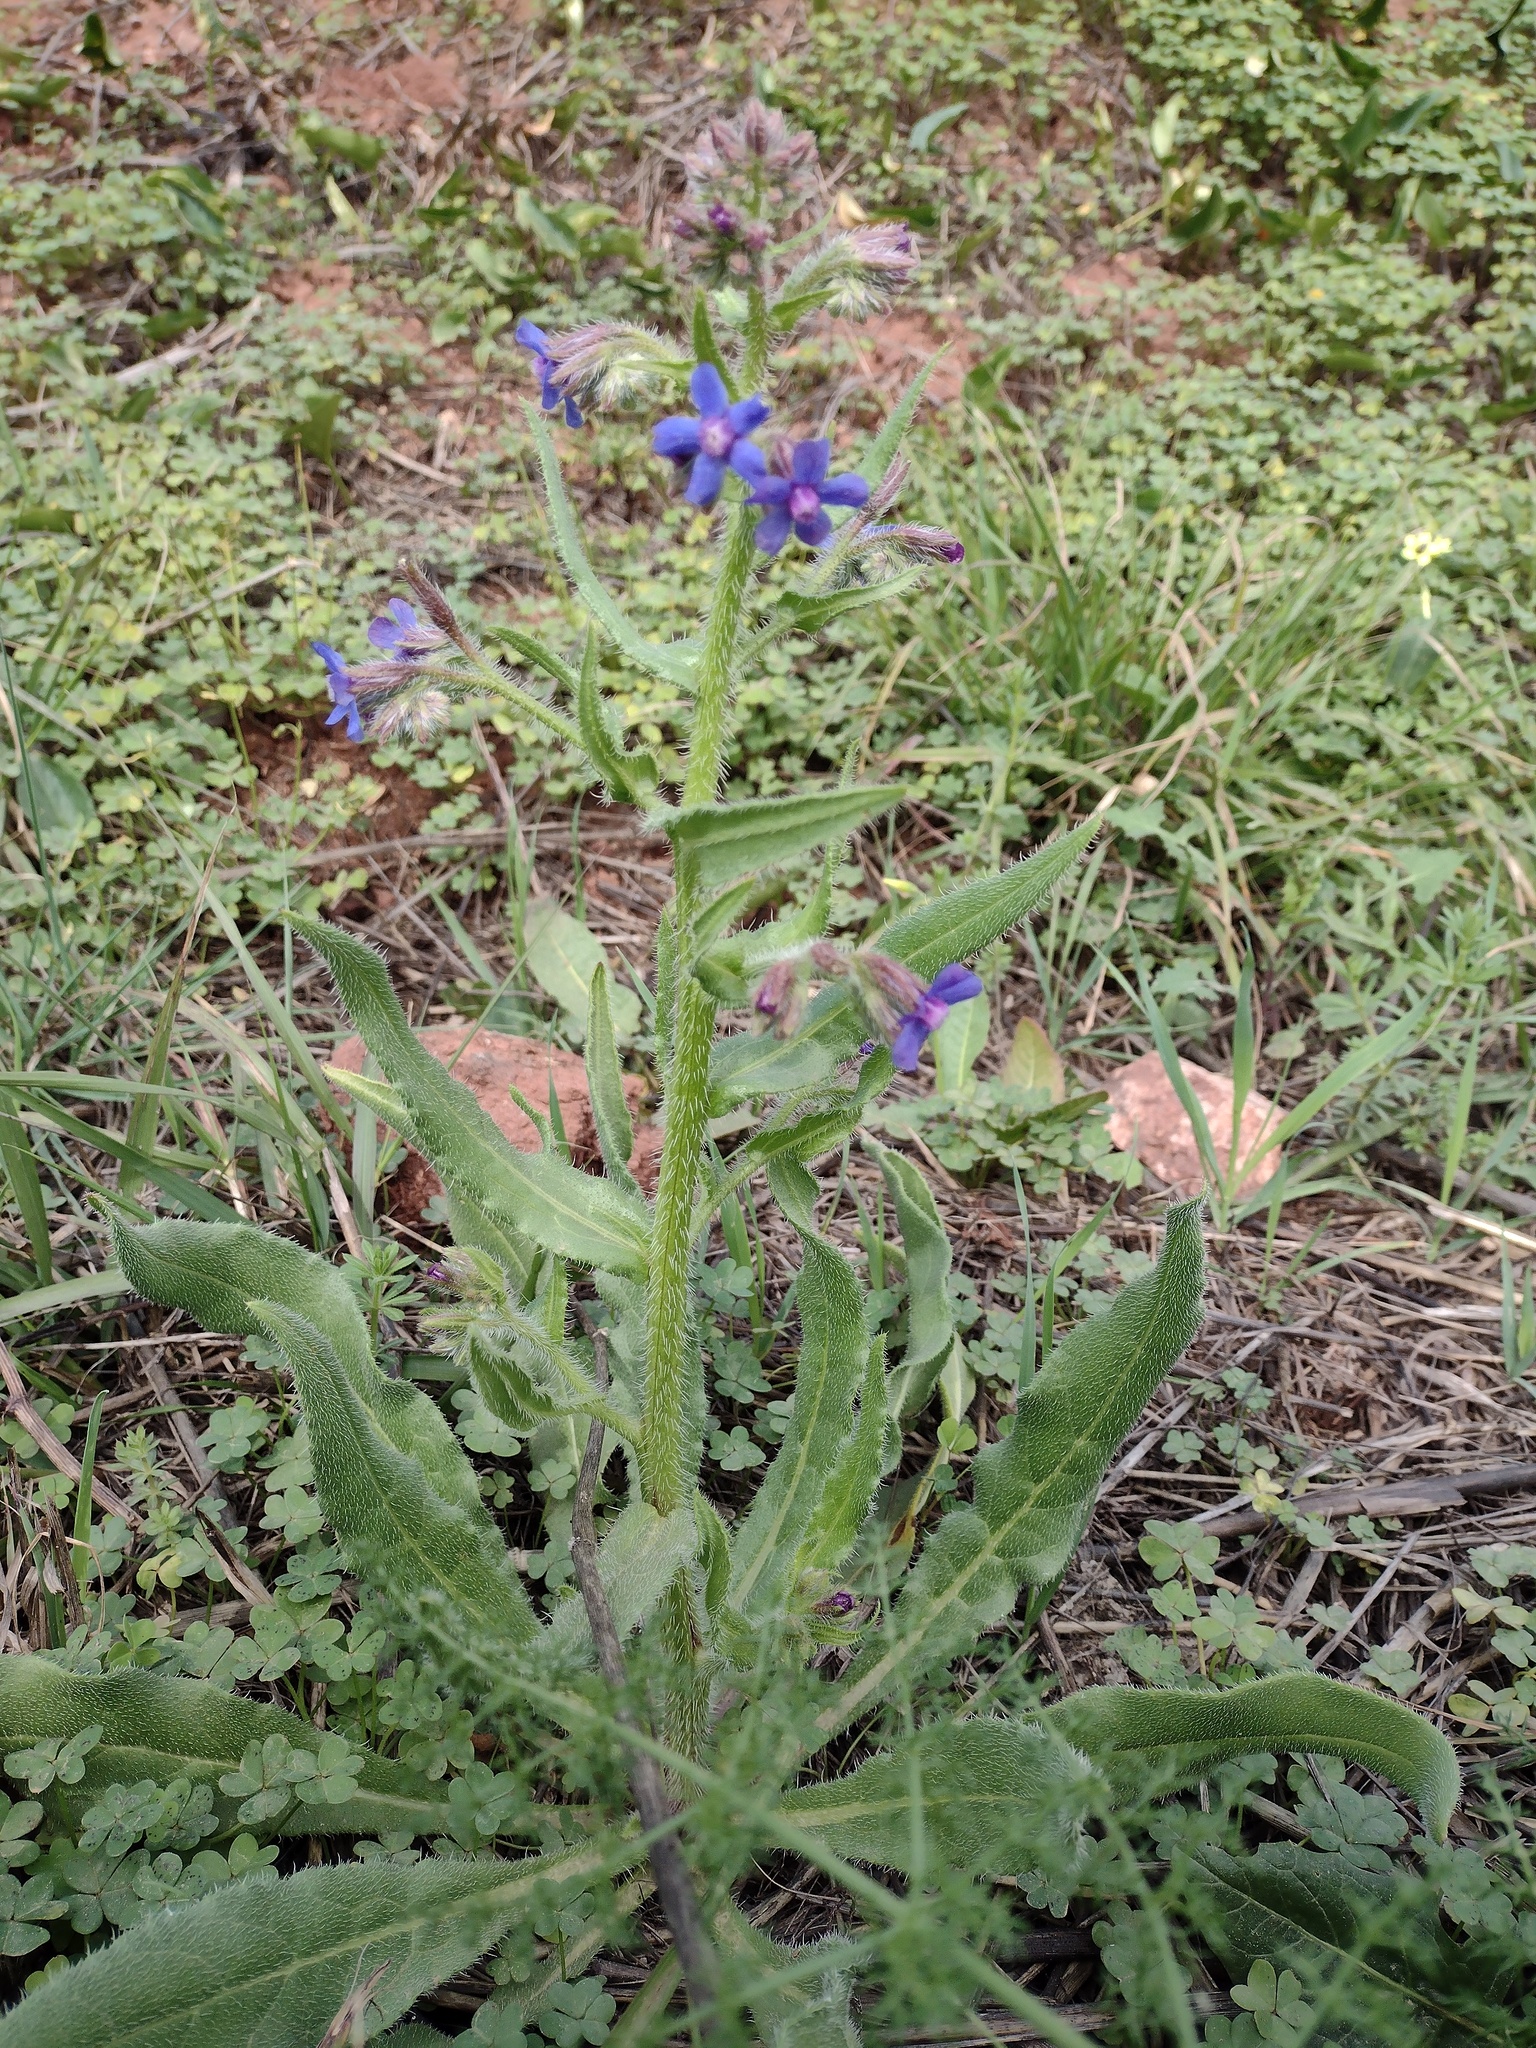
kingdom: Plantae
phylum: Tracheophyta
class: Magnoliopsida
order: Boraginales
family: Boraginaceae
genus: Anchusa
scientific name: Anchusa azurea
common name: Garden anchusa
